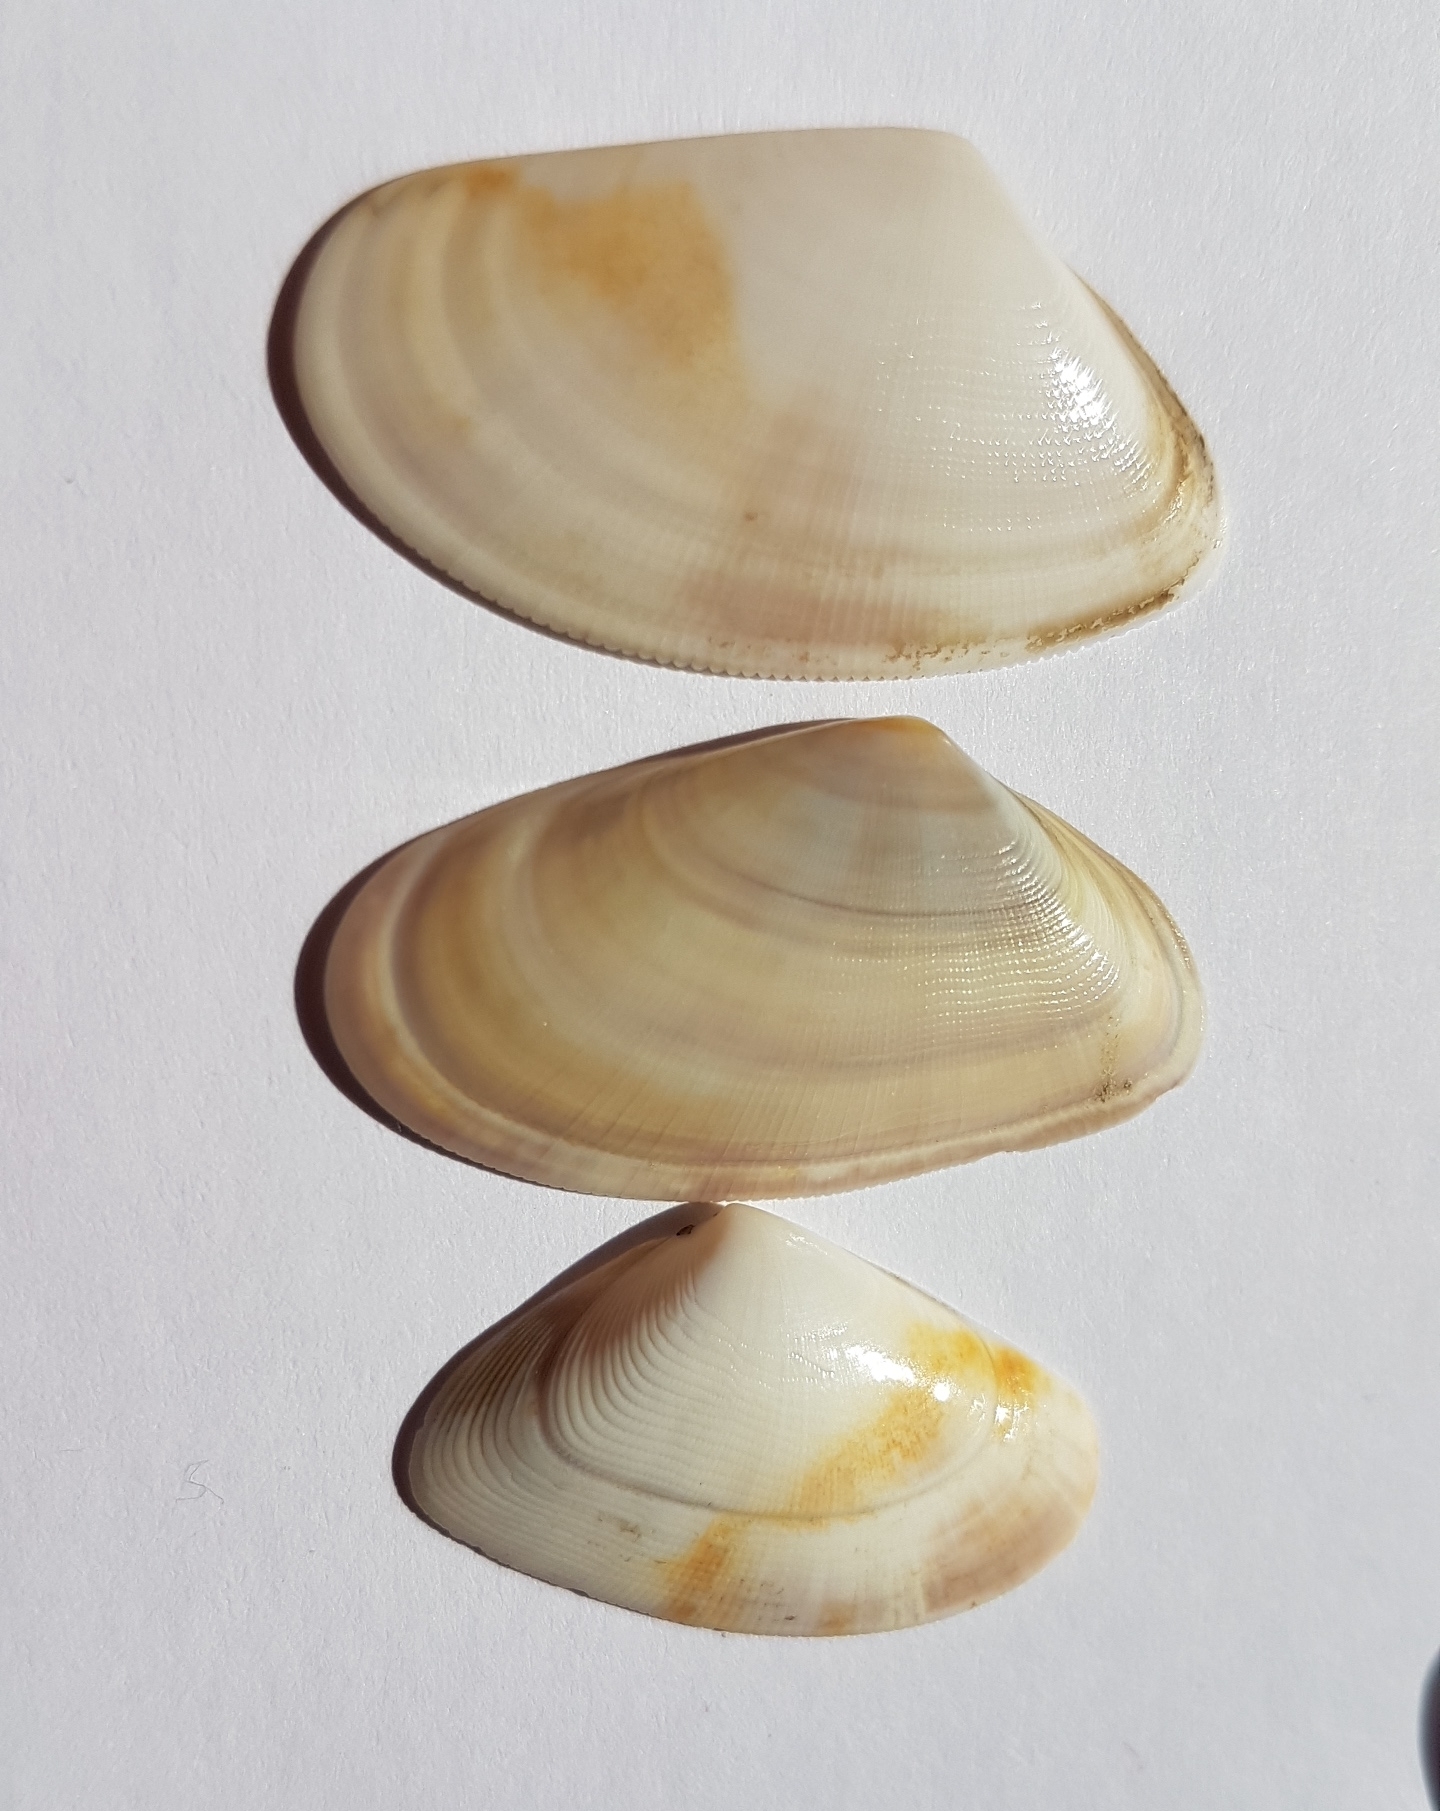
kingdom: Animalia
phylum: Mollusca
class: Bivalvia
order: Cardiida
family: Donacidae
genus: Donax
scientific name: Donax trunculus
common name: Truncate donax
